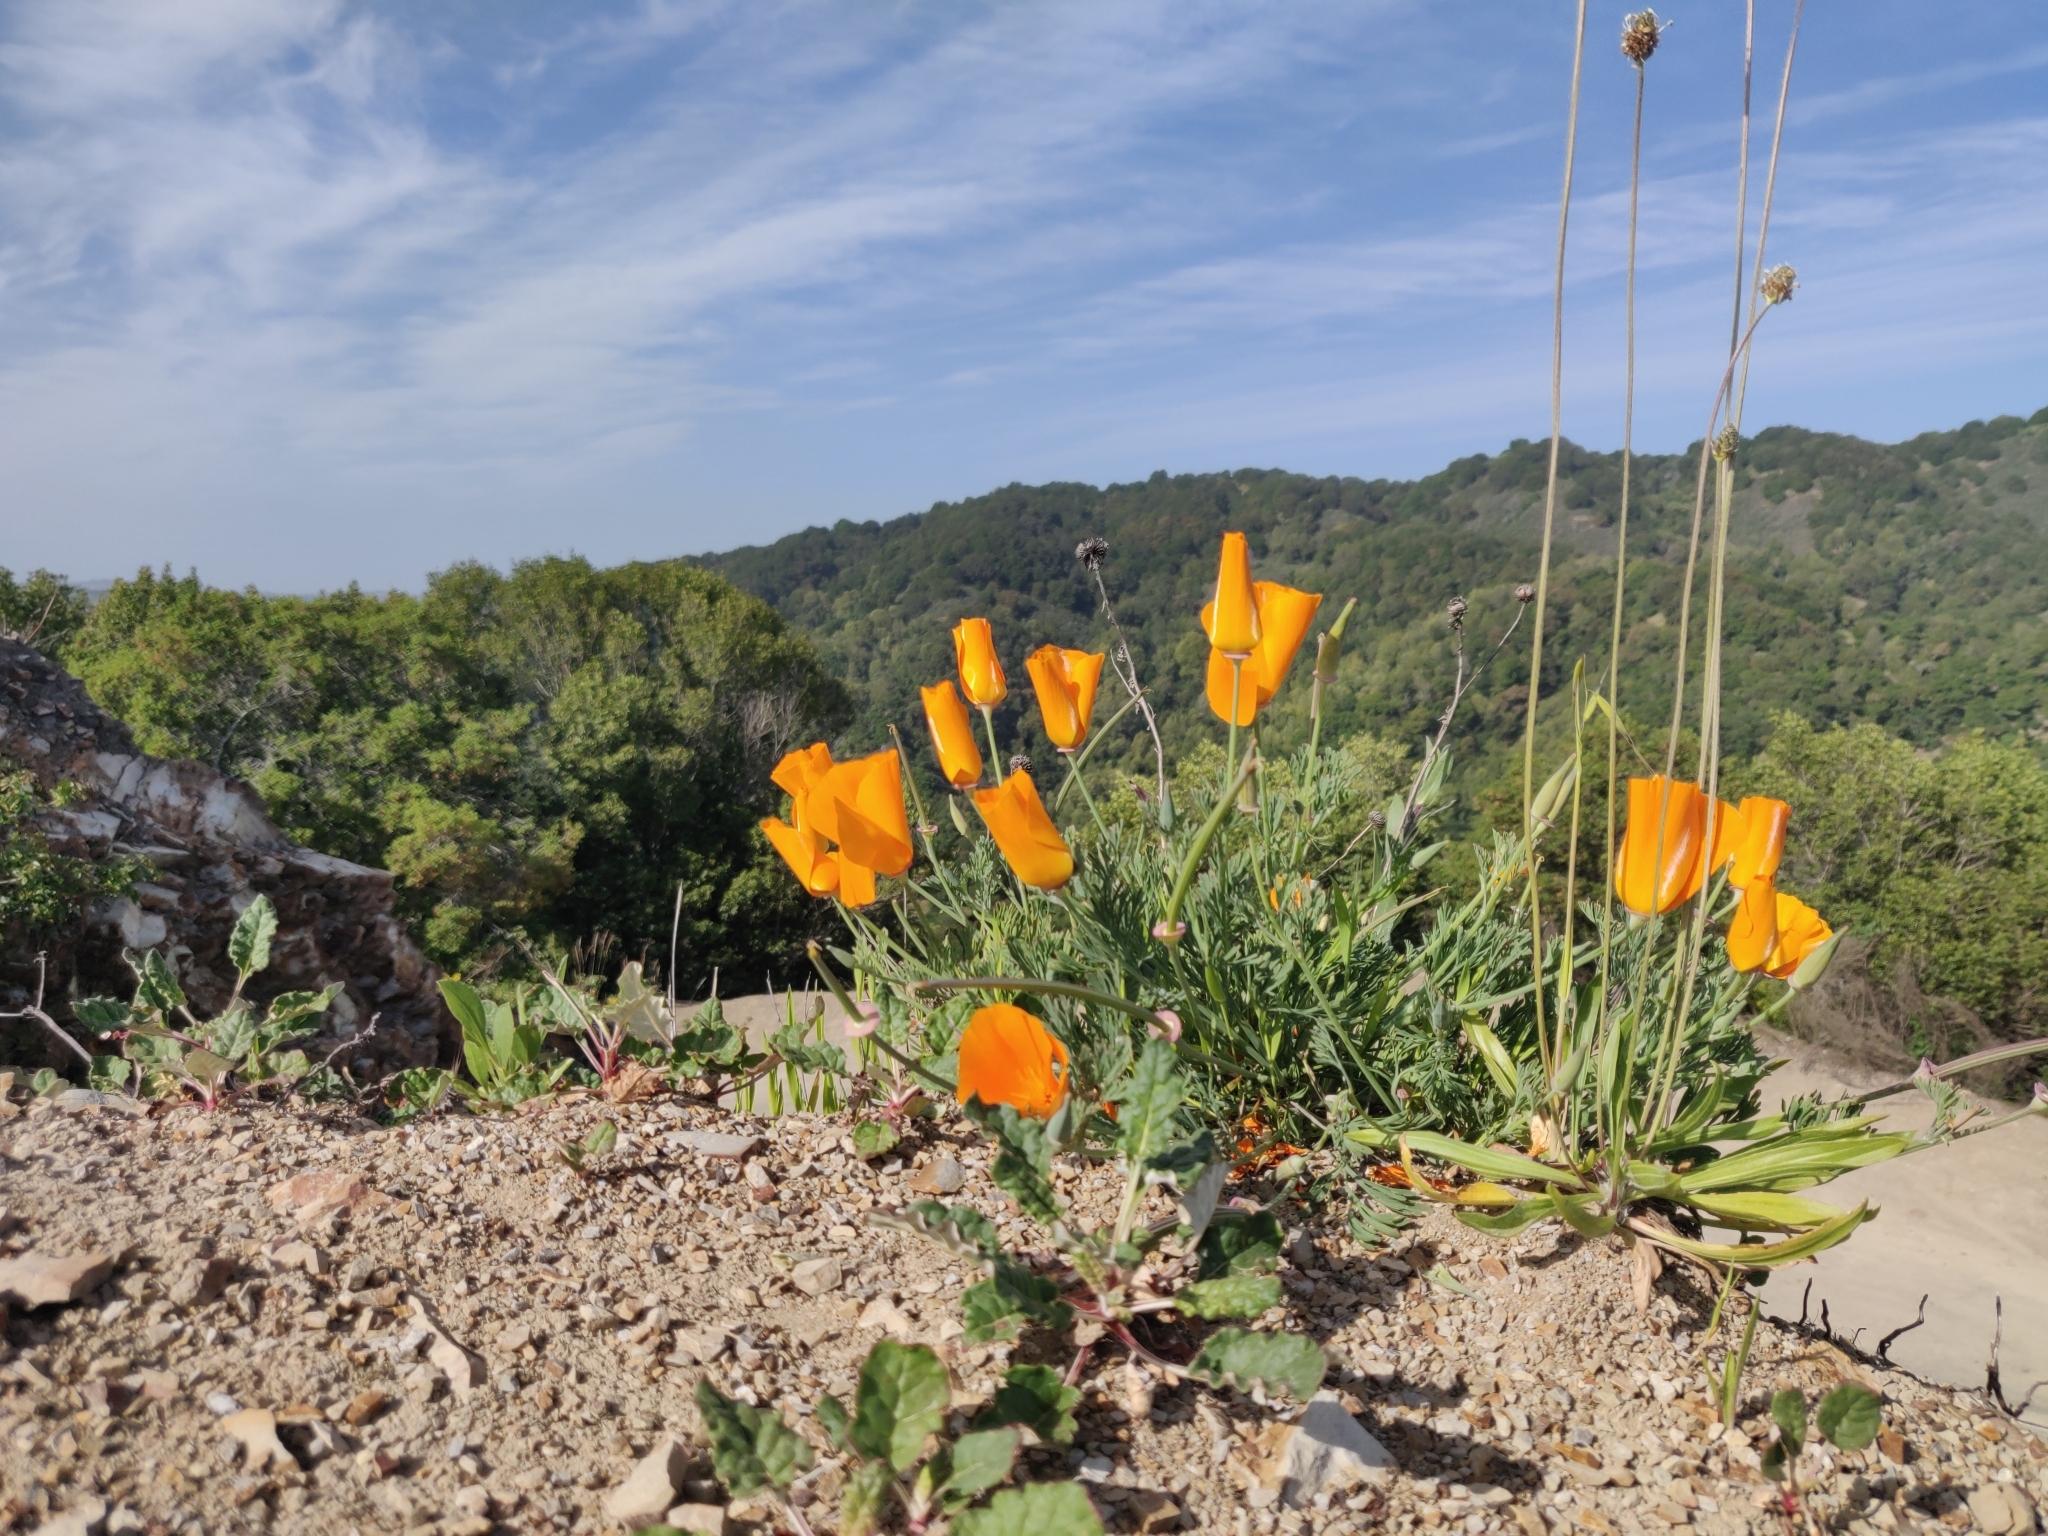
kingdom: Plantae
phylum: Tracheophyta
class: Magnoliopsida
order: Ranunculales
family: Papaveraceae
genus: Eschscholzia
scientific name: Eschscholzia californica
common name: California poppy
